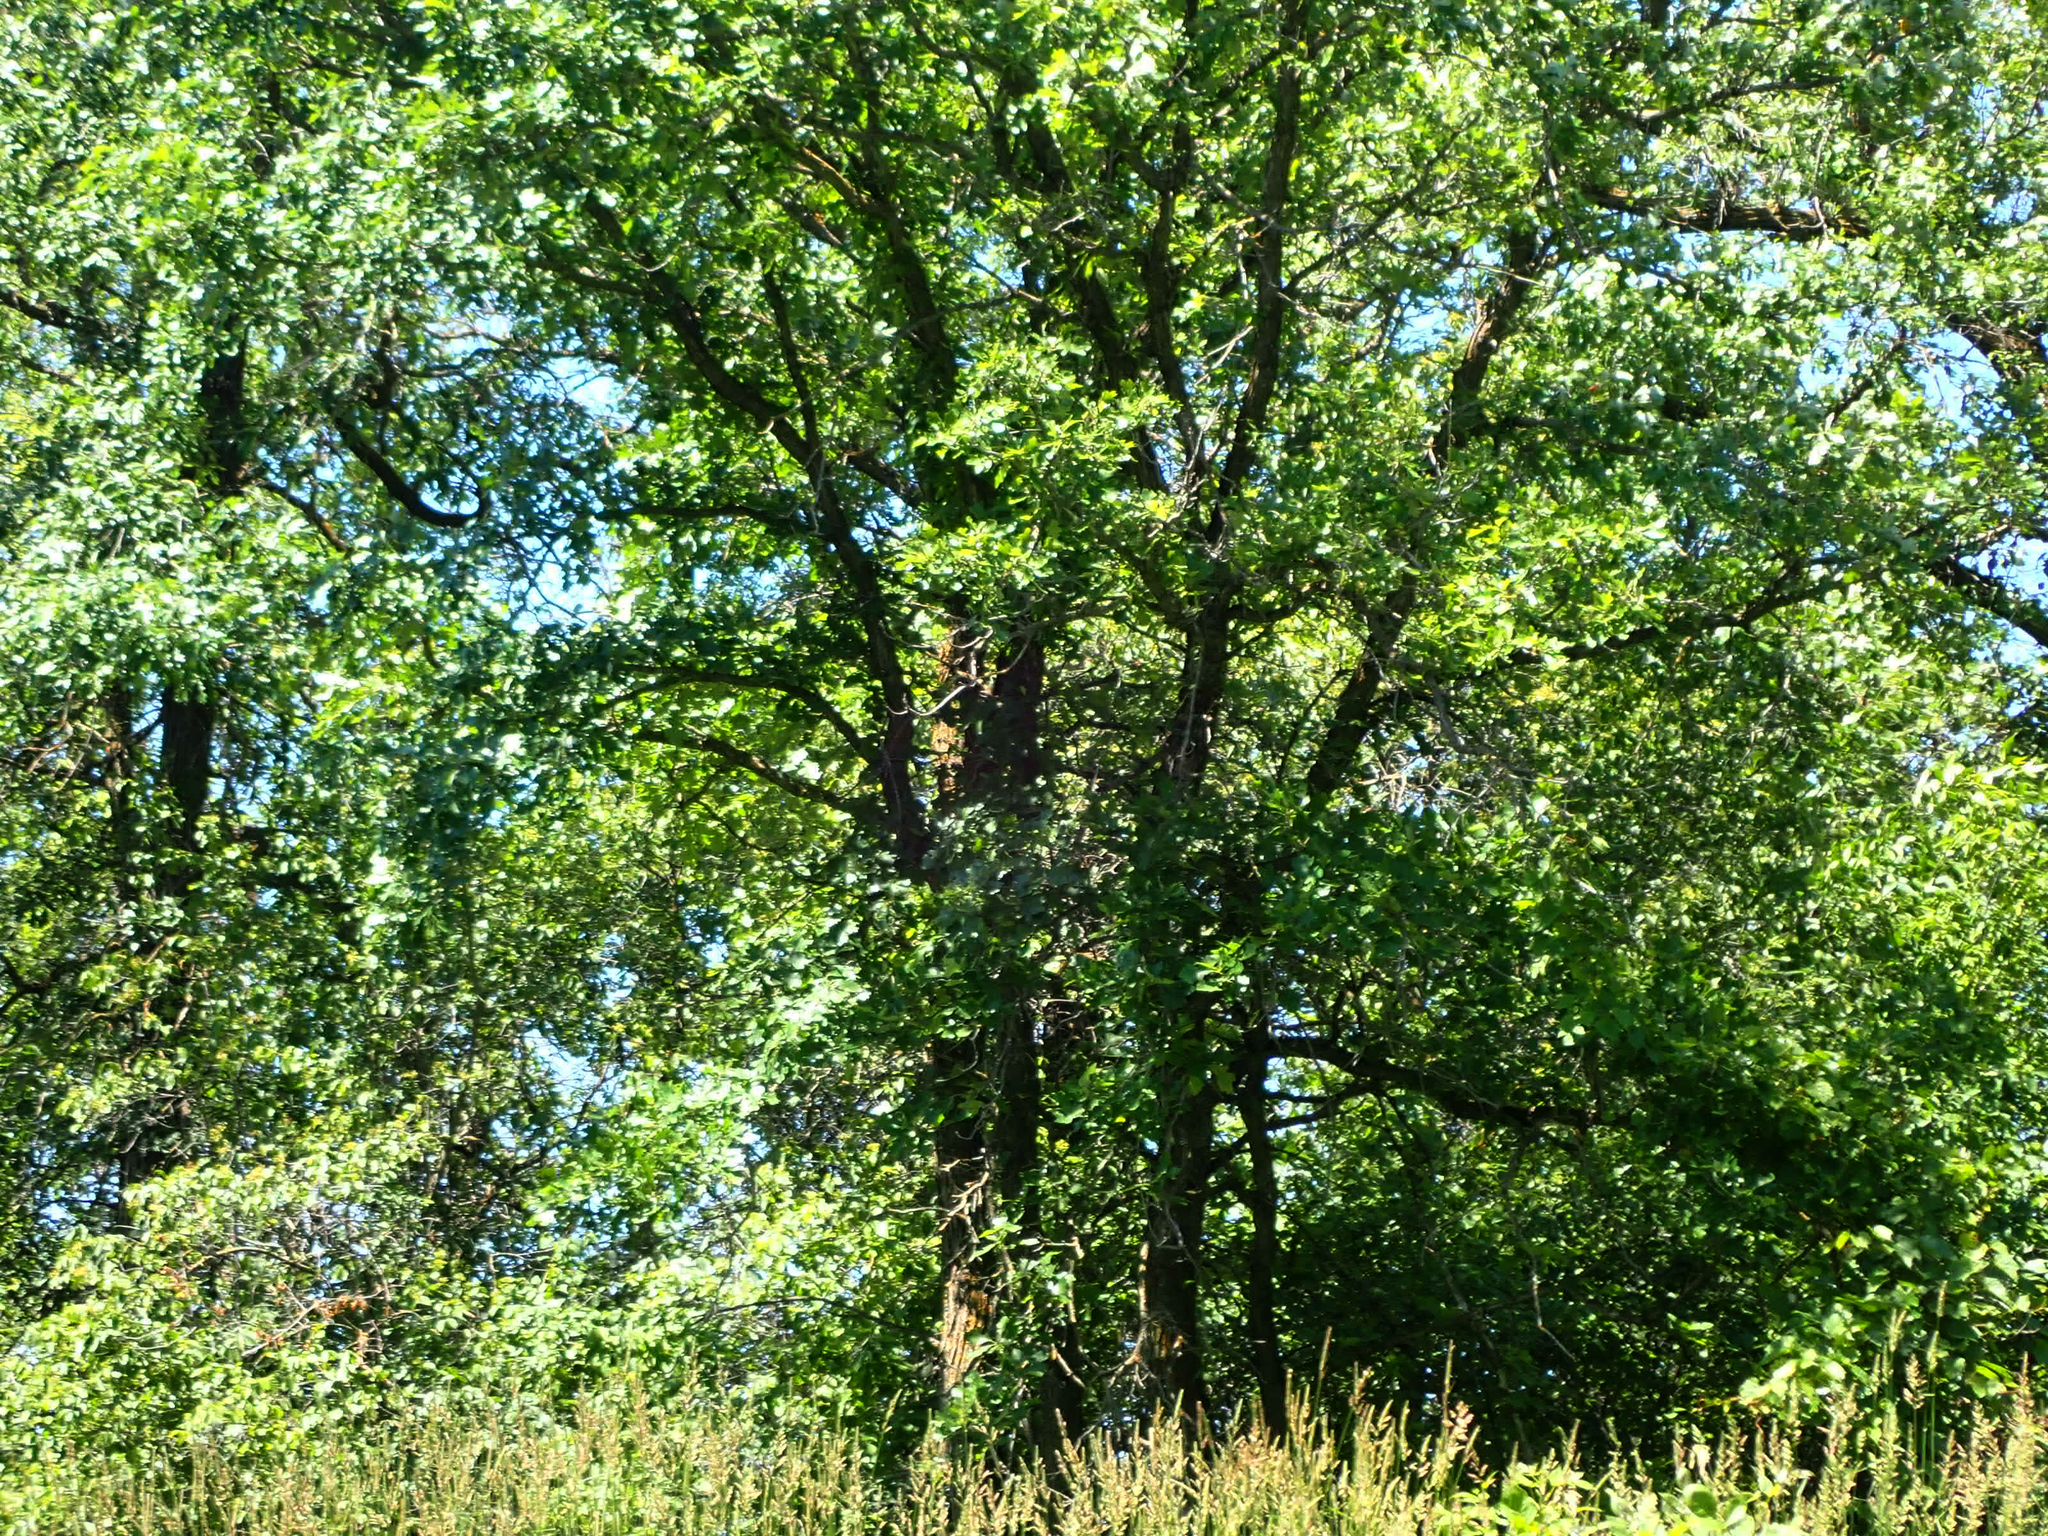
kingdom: Plantae
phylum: Tracheophyta
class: Magnoliopsida
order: Fagales
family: Fagaceae
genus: Quercus
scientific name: Quercus macrocarpa
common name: Bur oak
